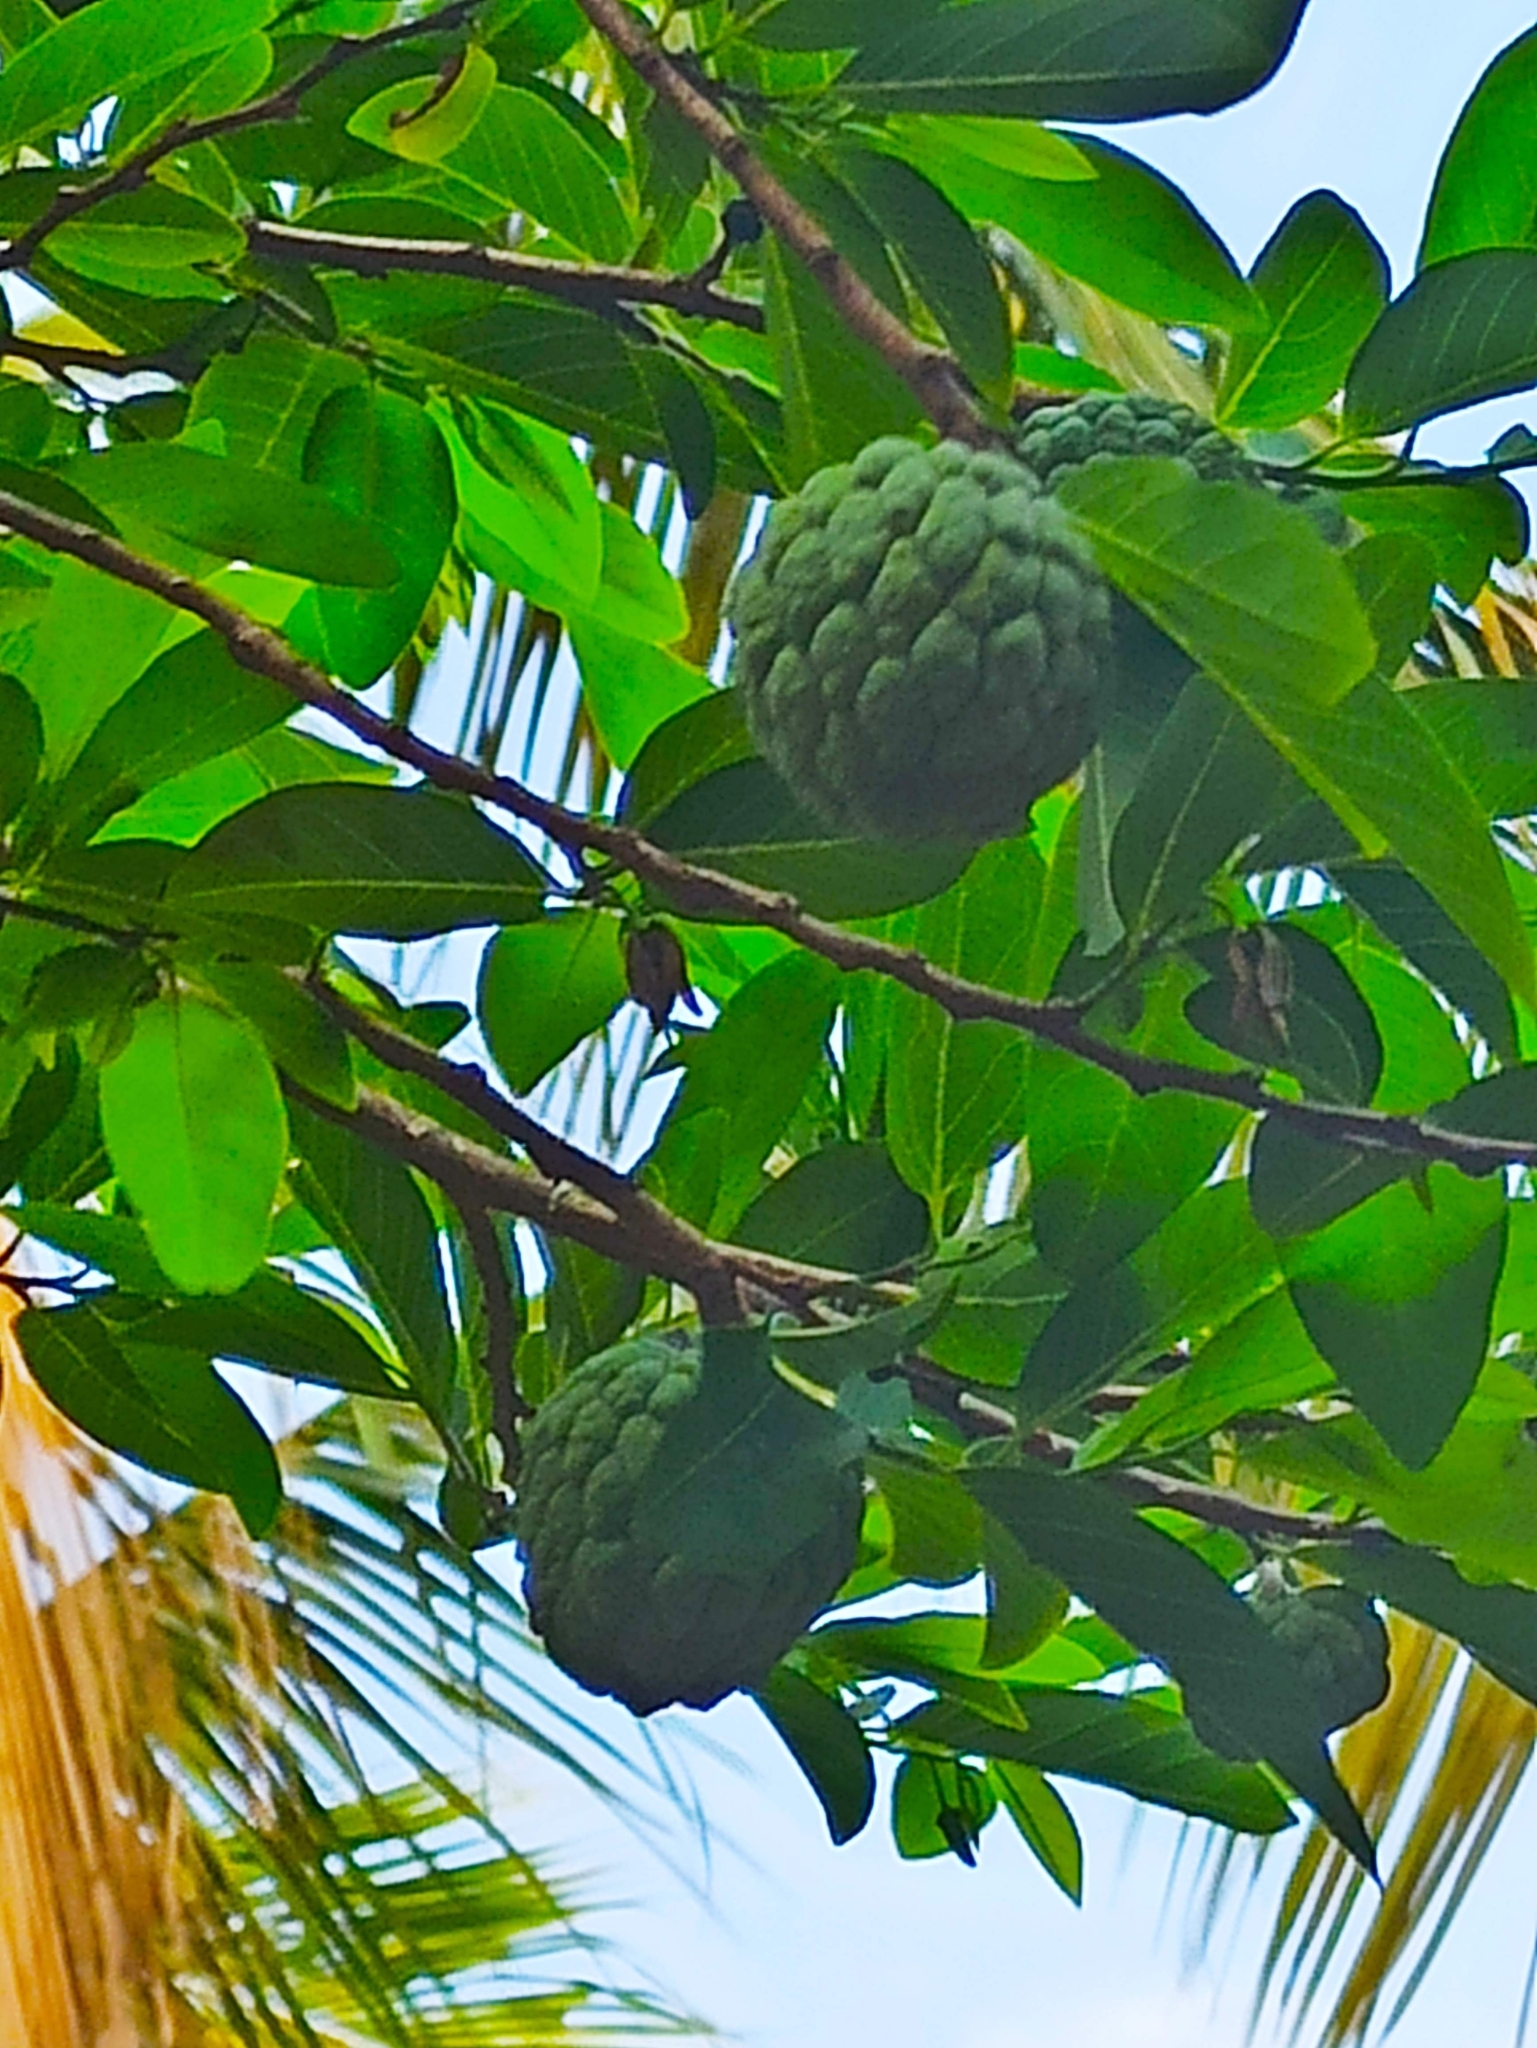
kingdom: Plantae
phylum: Tracheophyta
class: Magnoliopsida
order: Magnoliales
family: Annonaceae
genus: Annona
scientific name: Annona squamosa
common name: Custard-apple
